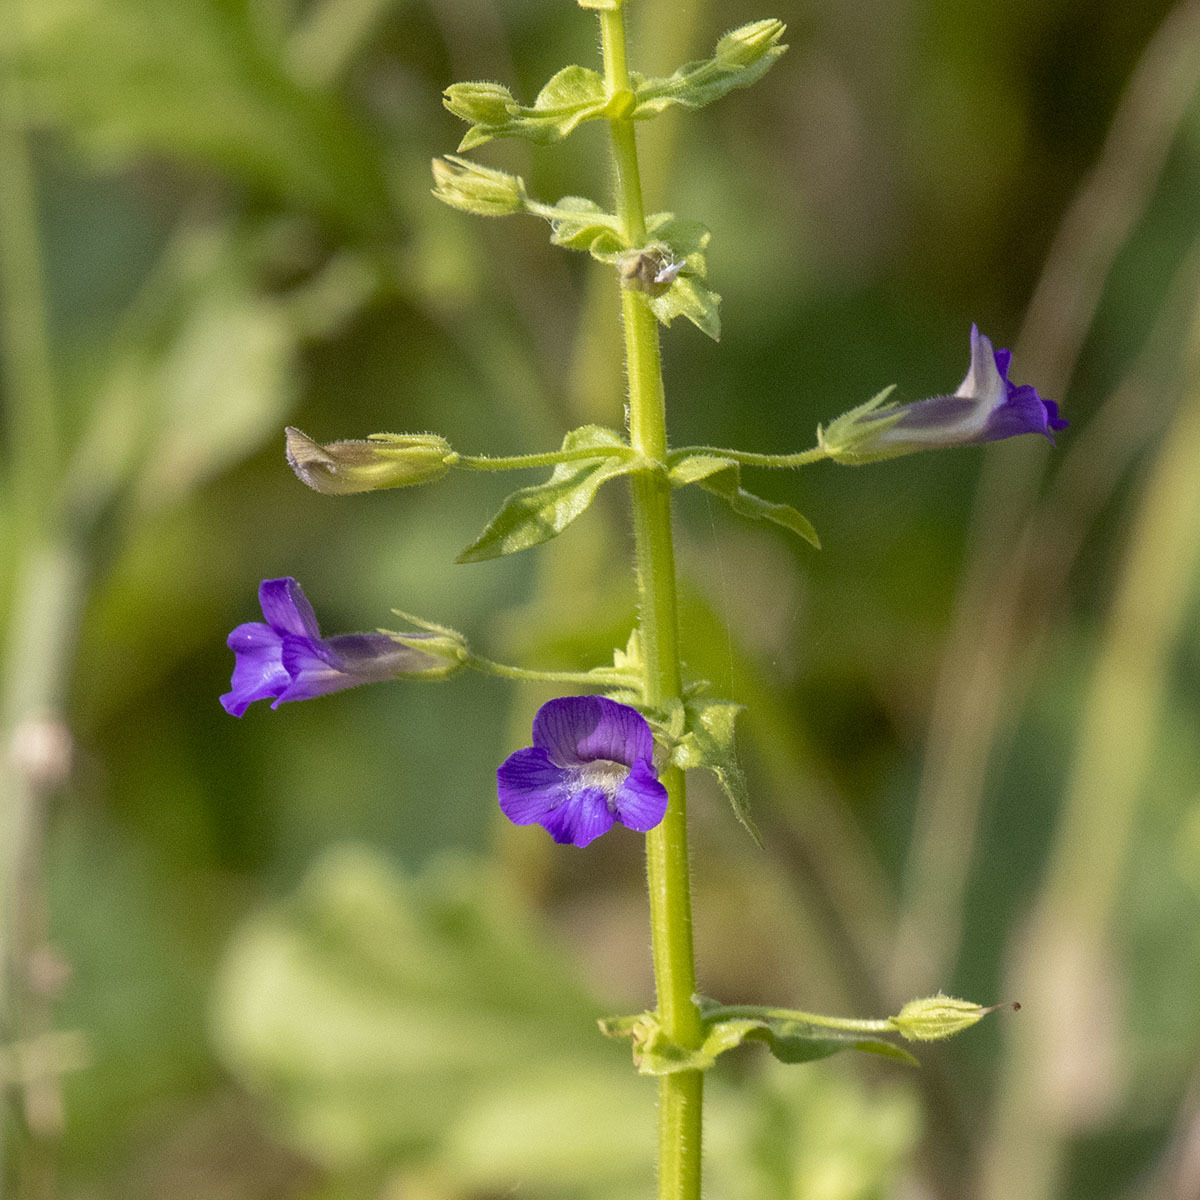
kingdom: Plantae
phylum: Tracheophyta
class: Magnoliopsida
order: Lamiales
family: Plantaginaceae
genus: Stemodia
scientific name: Stemodia viscosa
